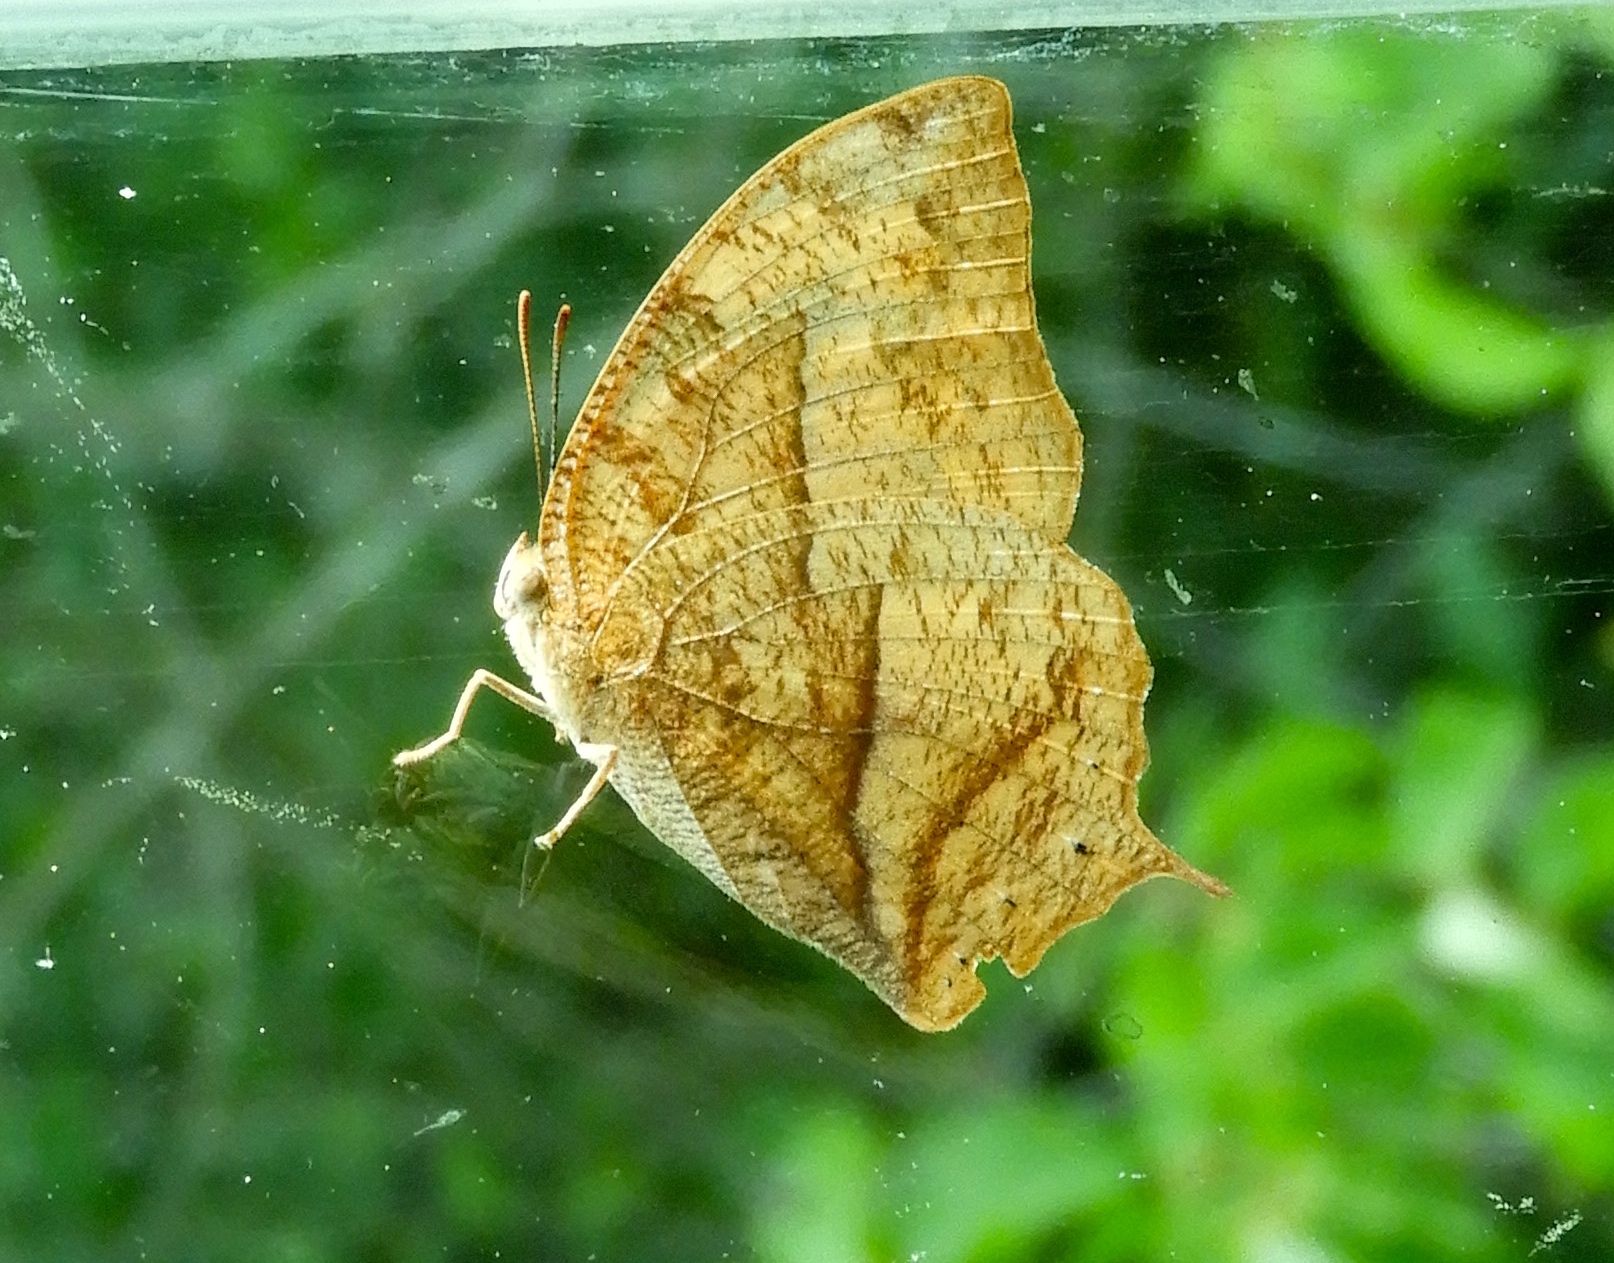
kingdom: Animalia
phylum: Arthropoda
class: Insecta
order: Lepidoptera
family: Nymphalidae
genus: Fountainea
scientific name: Fountainea
